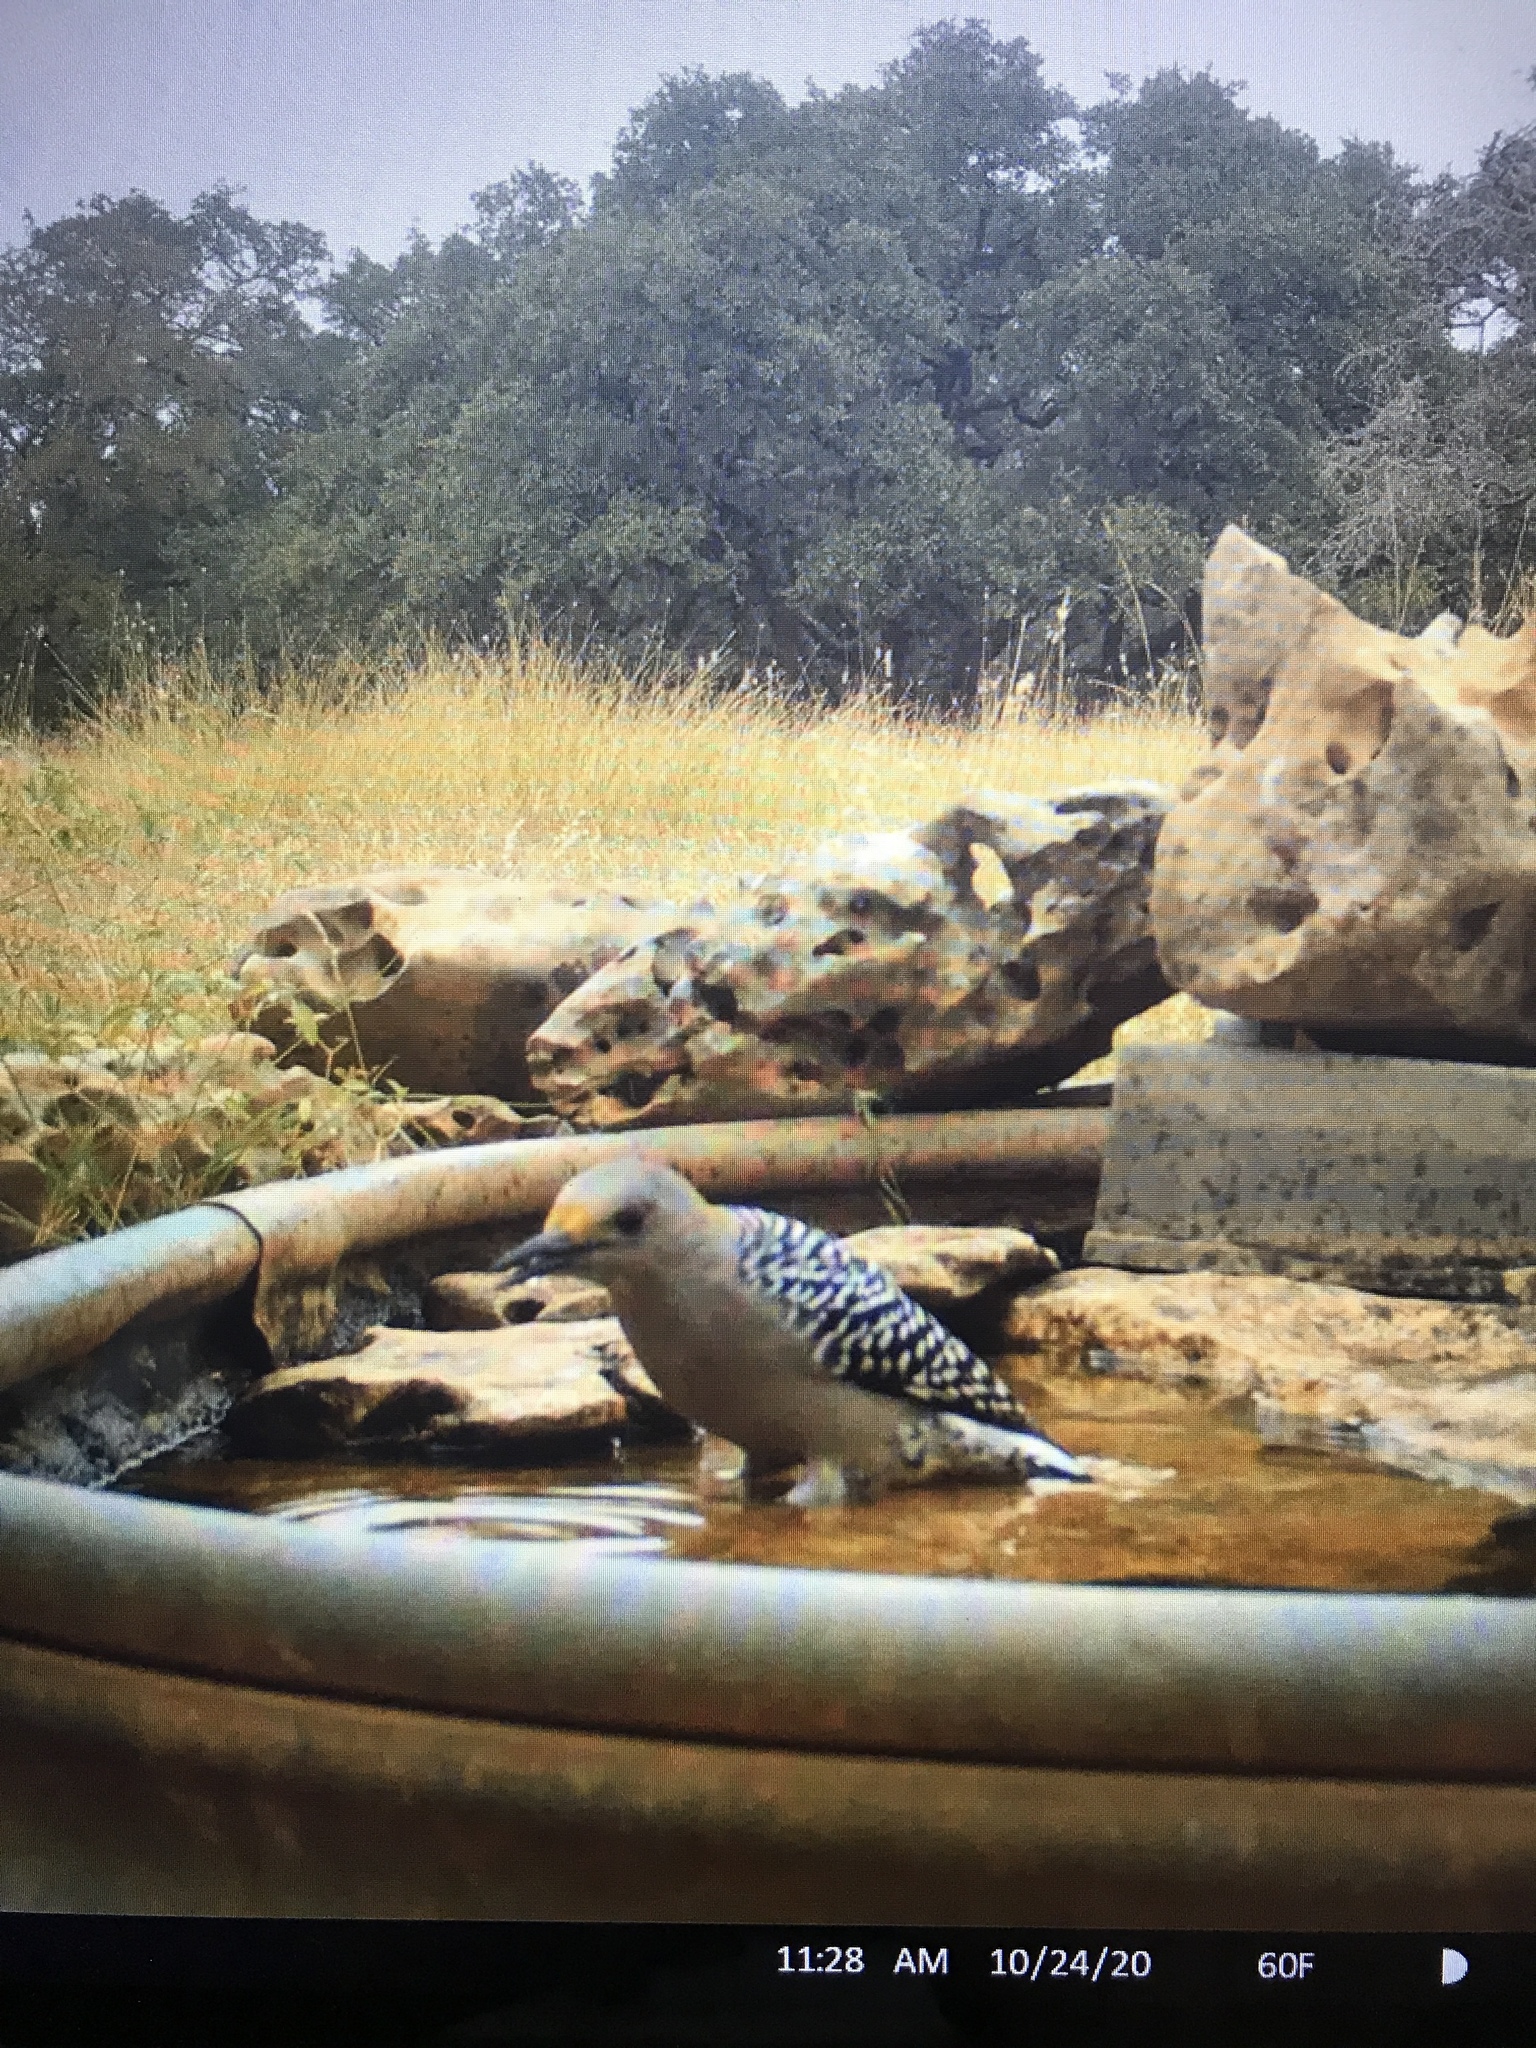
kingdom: Animalia
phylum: Chordata
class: Aves
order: Piciformes
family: Picidae
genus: Melanerpes
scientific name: Melanerpes aurifrons
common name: Golden-fronted woodpecker
